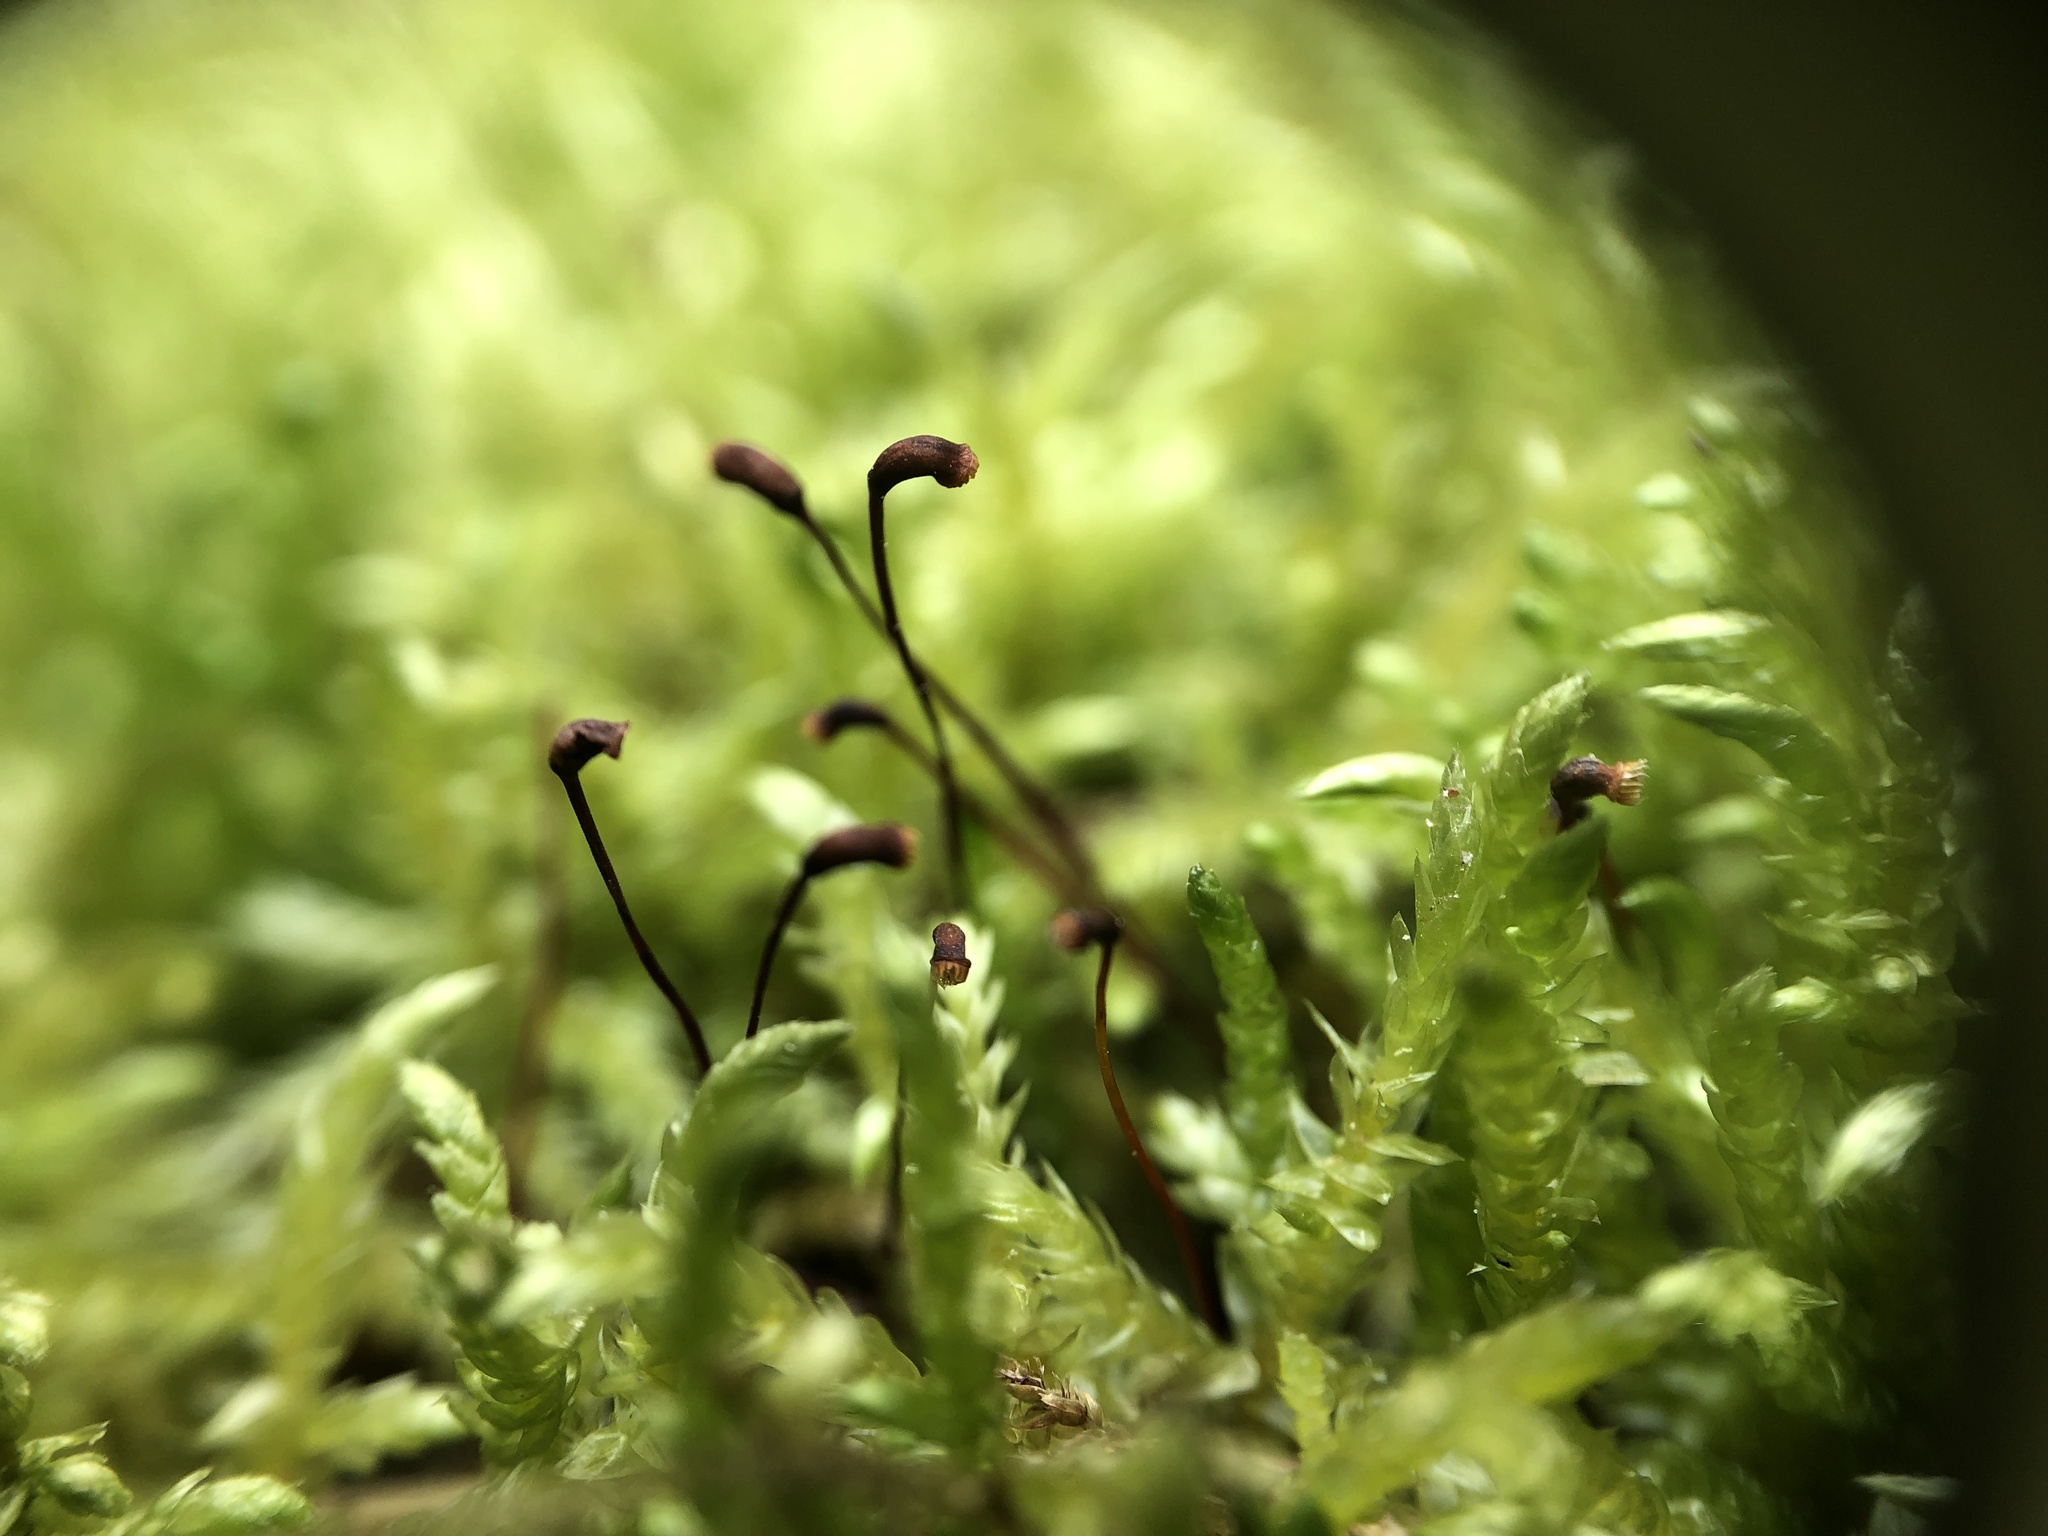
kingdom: Plantae
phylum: Bryophyta
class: Bryopsida
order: Hypnales
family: Brachytheciaceae
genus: Brachythecium
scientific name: Brachythecium rivulare
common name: River ragged moss
